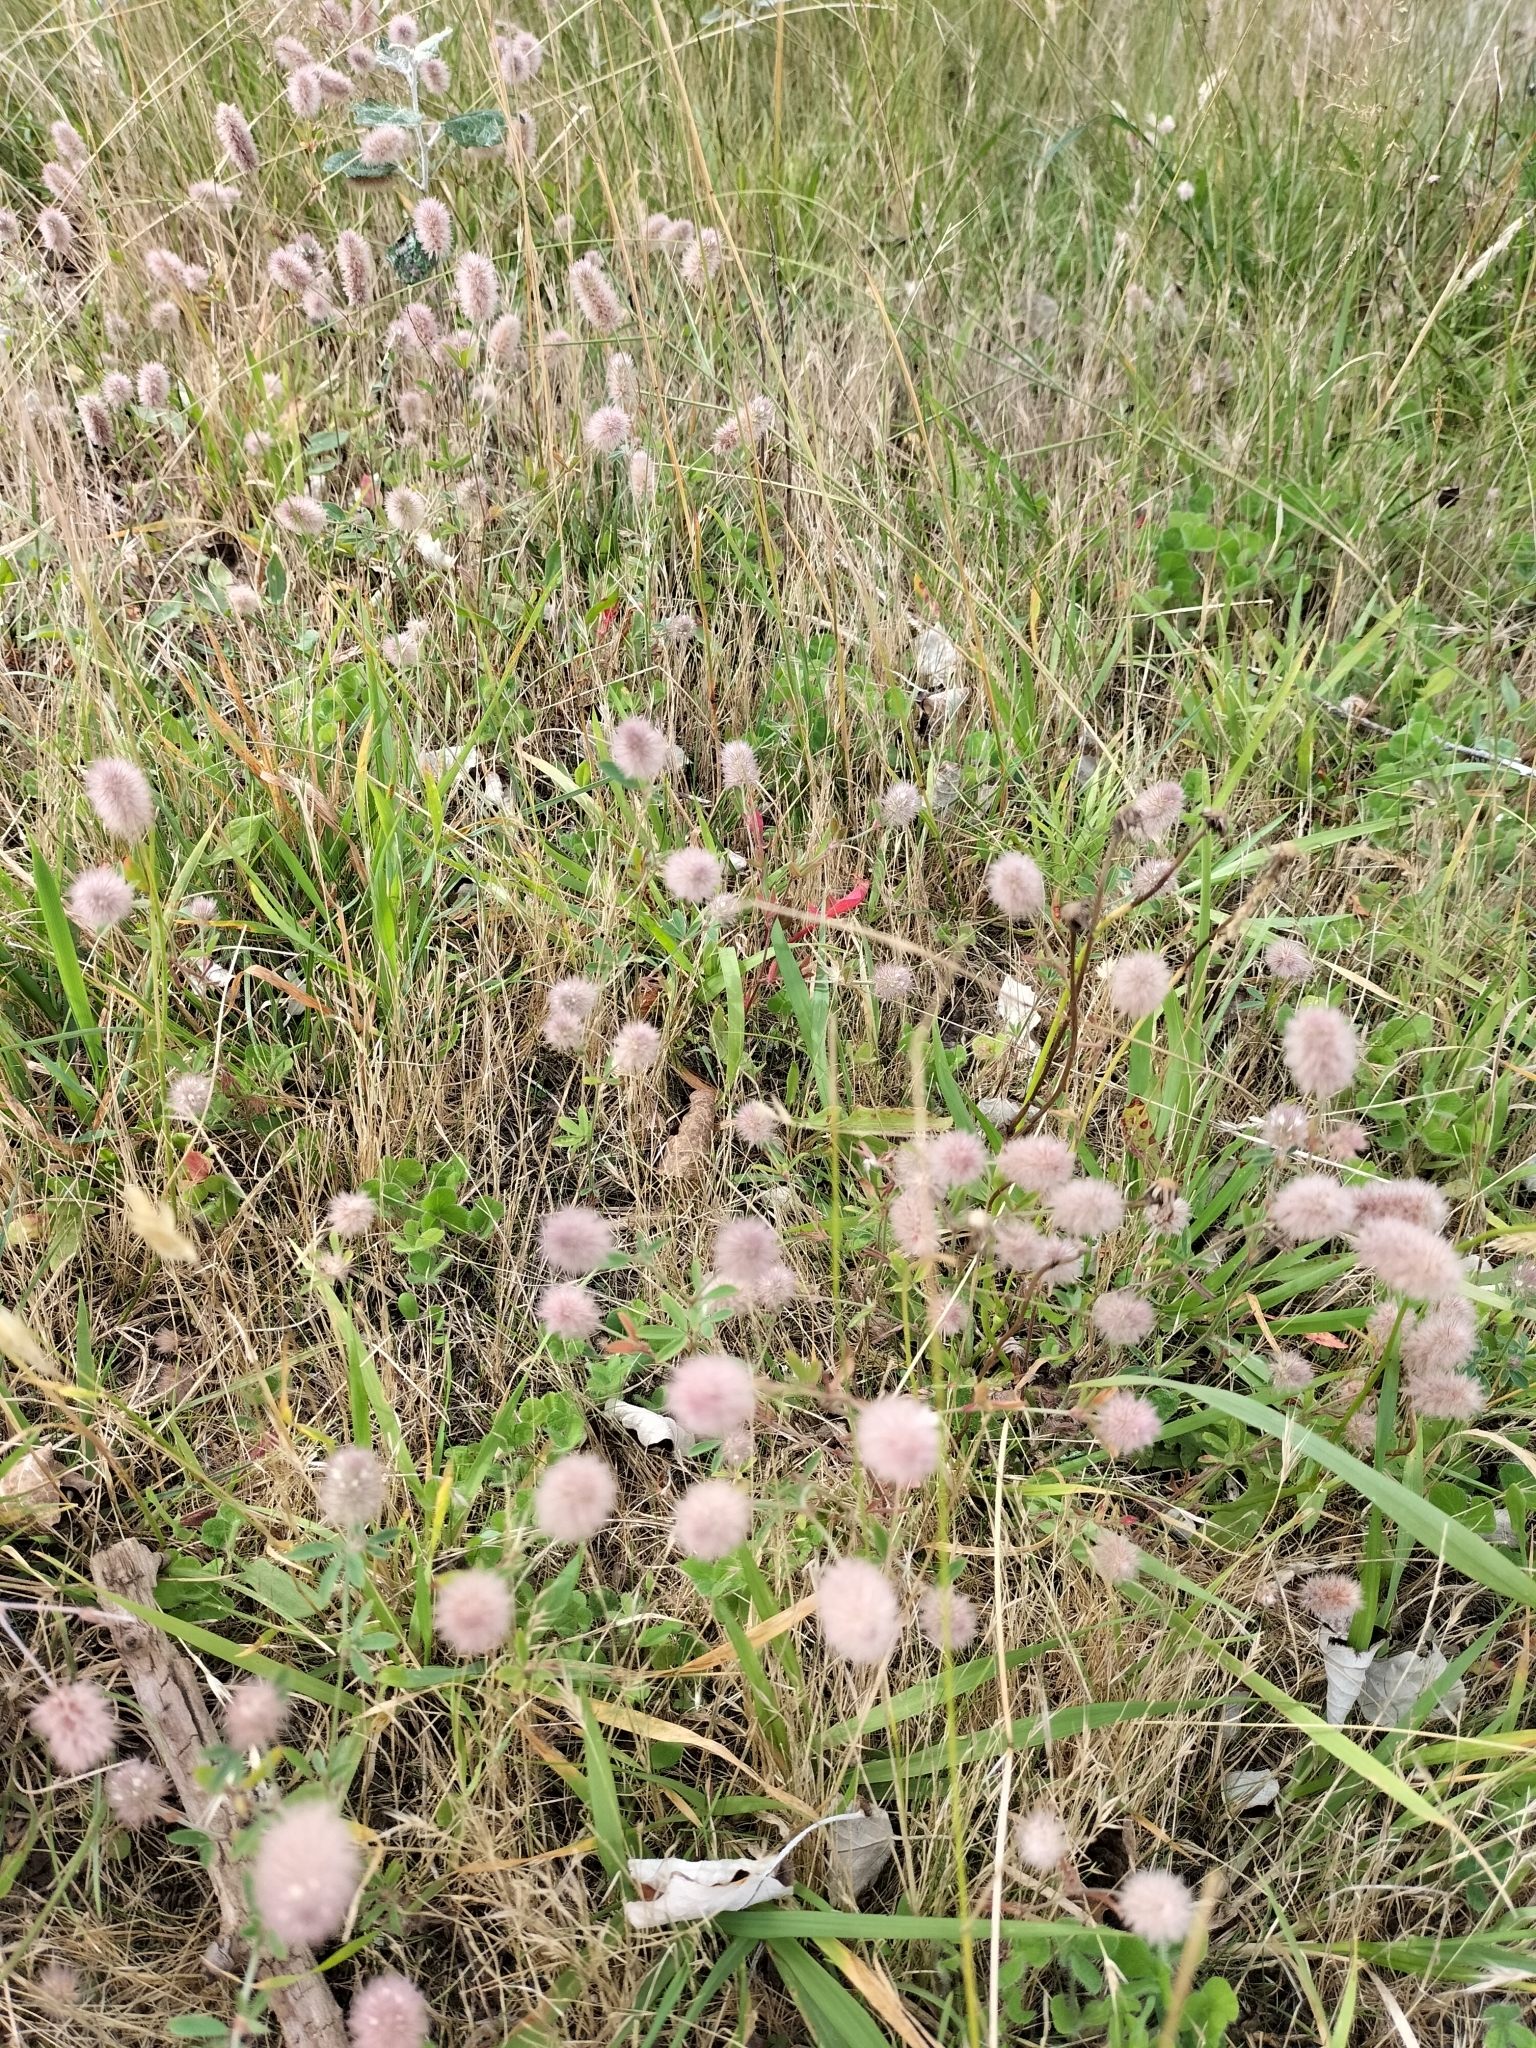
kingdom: Plantae
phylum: Tracheophyta
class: Magnoliopsida
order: Fabales
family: Fabaceae
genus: Trifolium
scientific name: Trifolium arvense
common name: Hare's-foot clover
